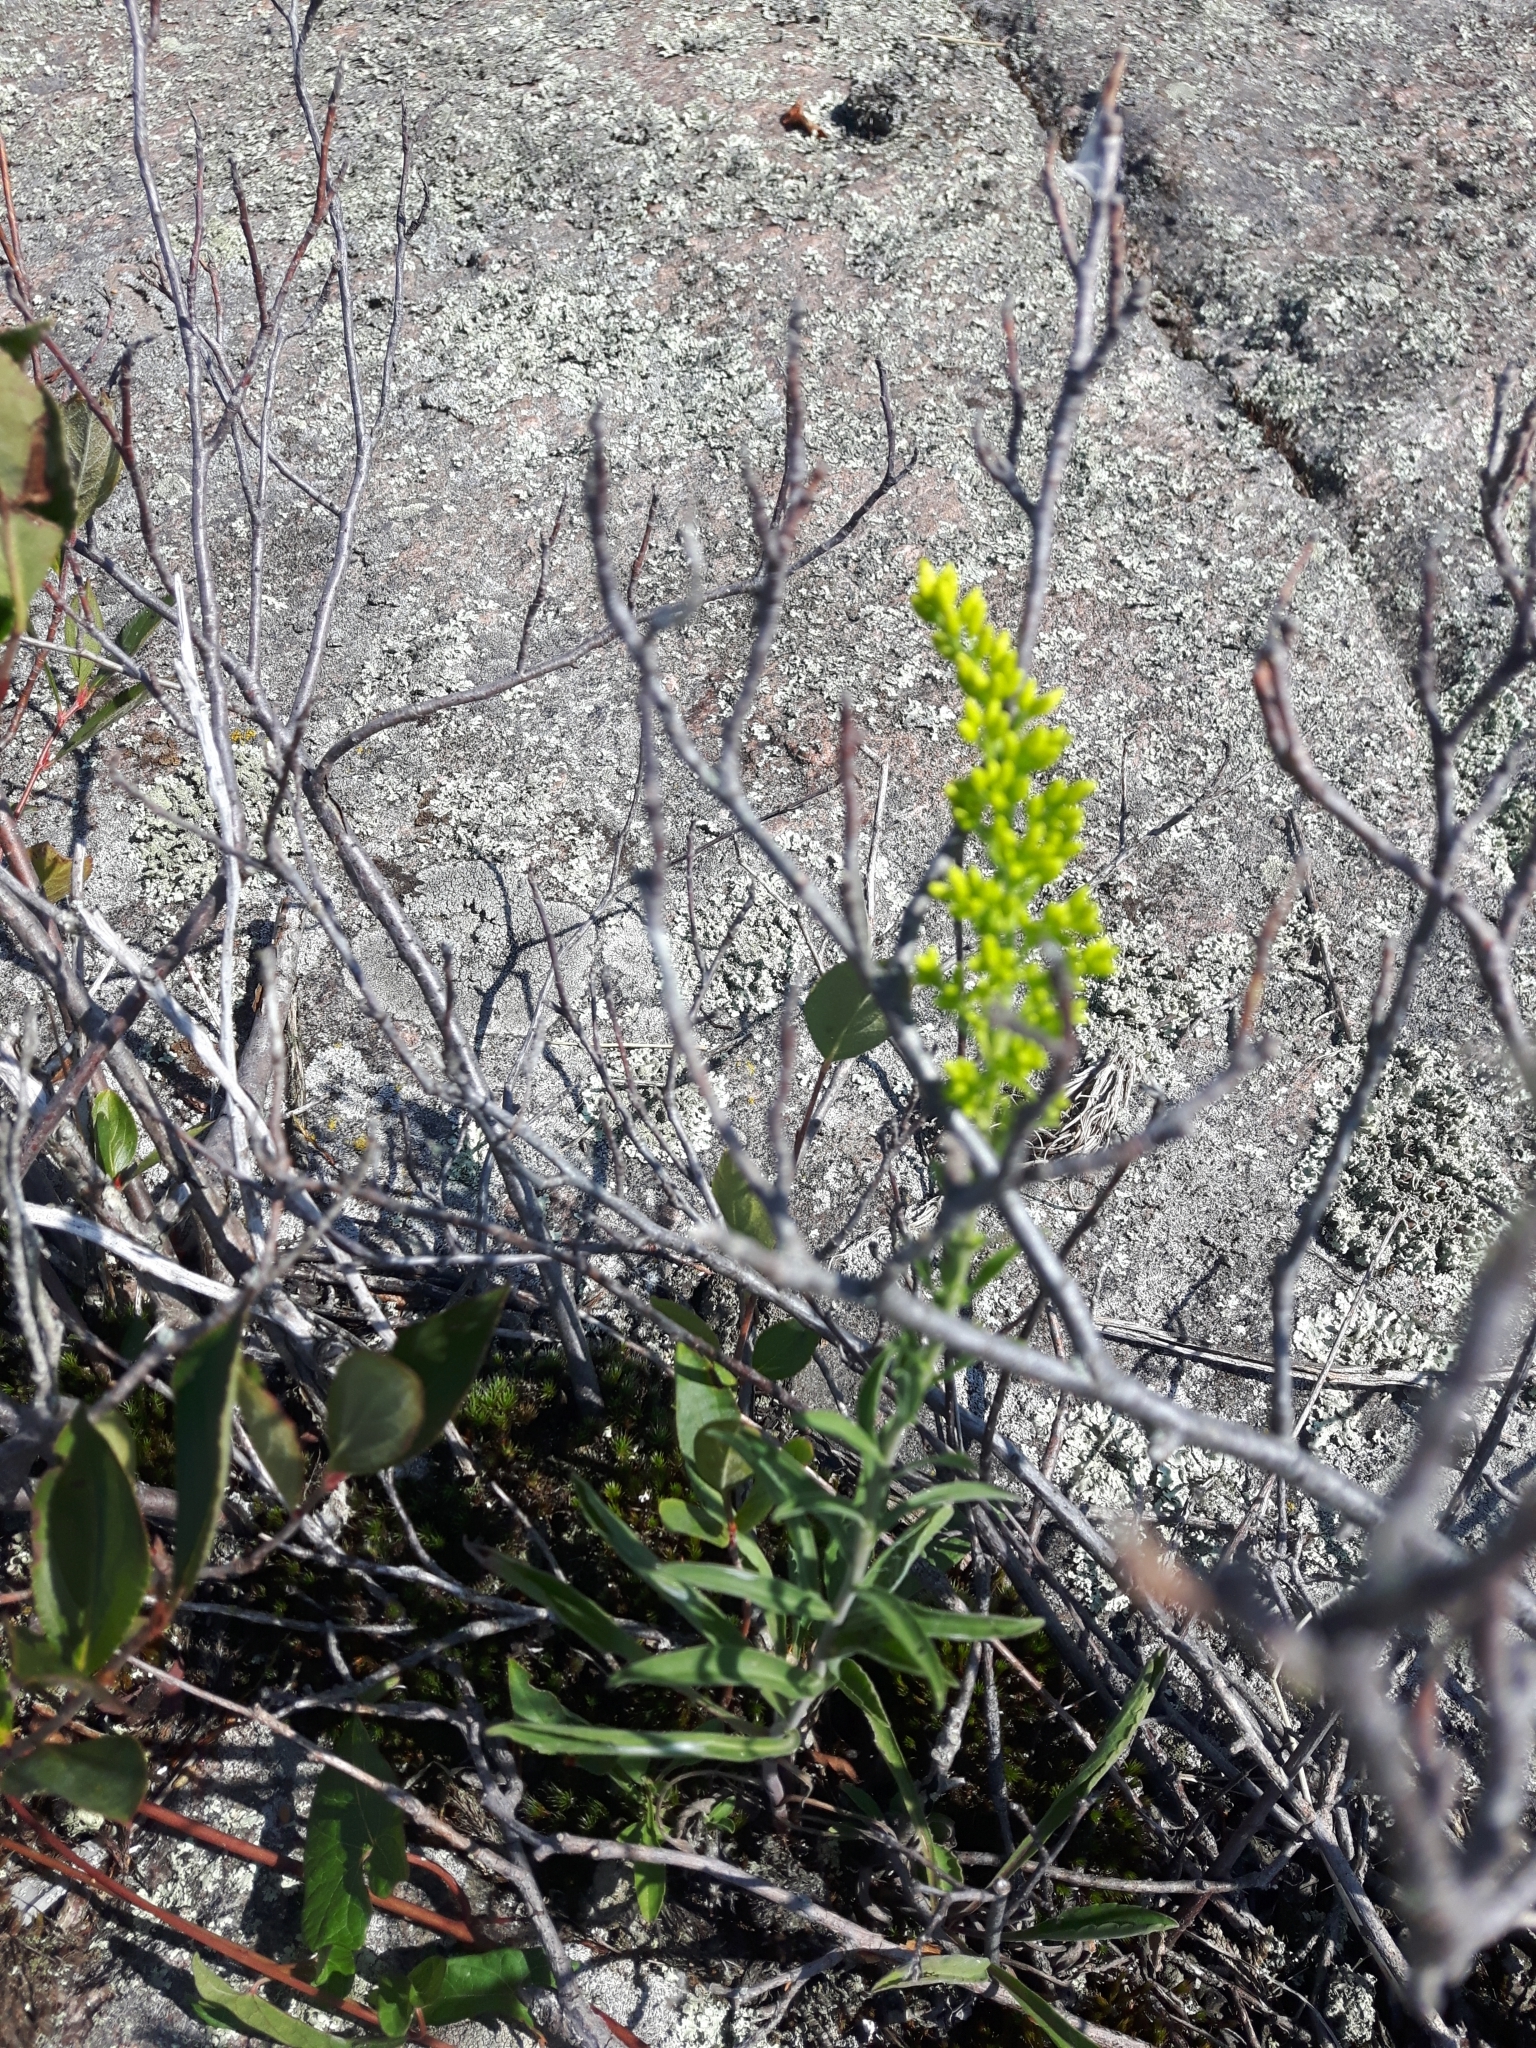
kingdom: Plantae
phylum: Tracheophyta
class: Magnoliopsida
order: Asterales
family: Asteraceae
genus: Solidago
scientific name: Solidago nemoralis
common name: Grey goldenrod
